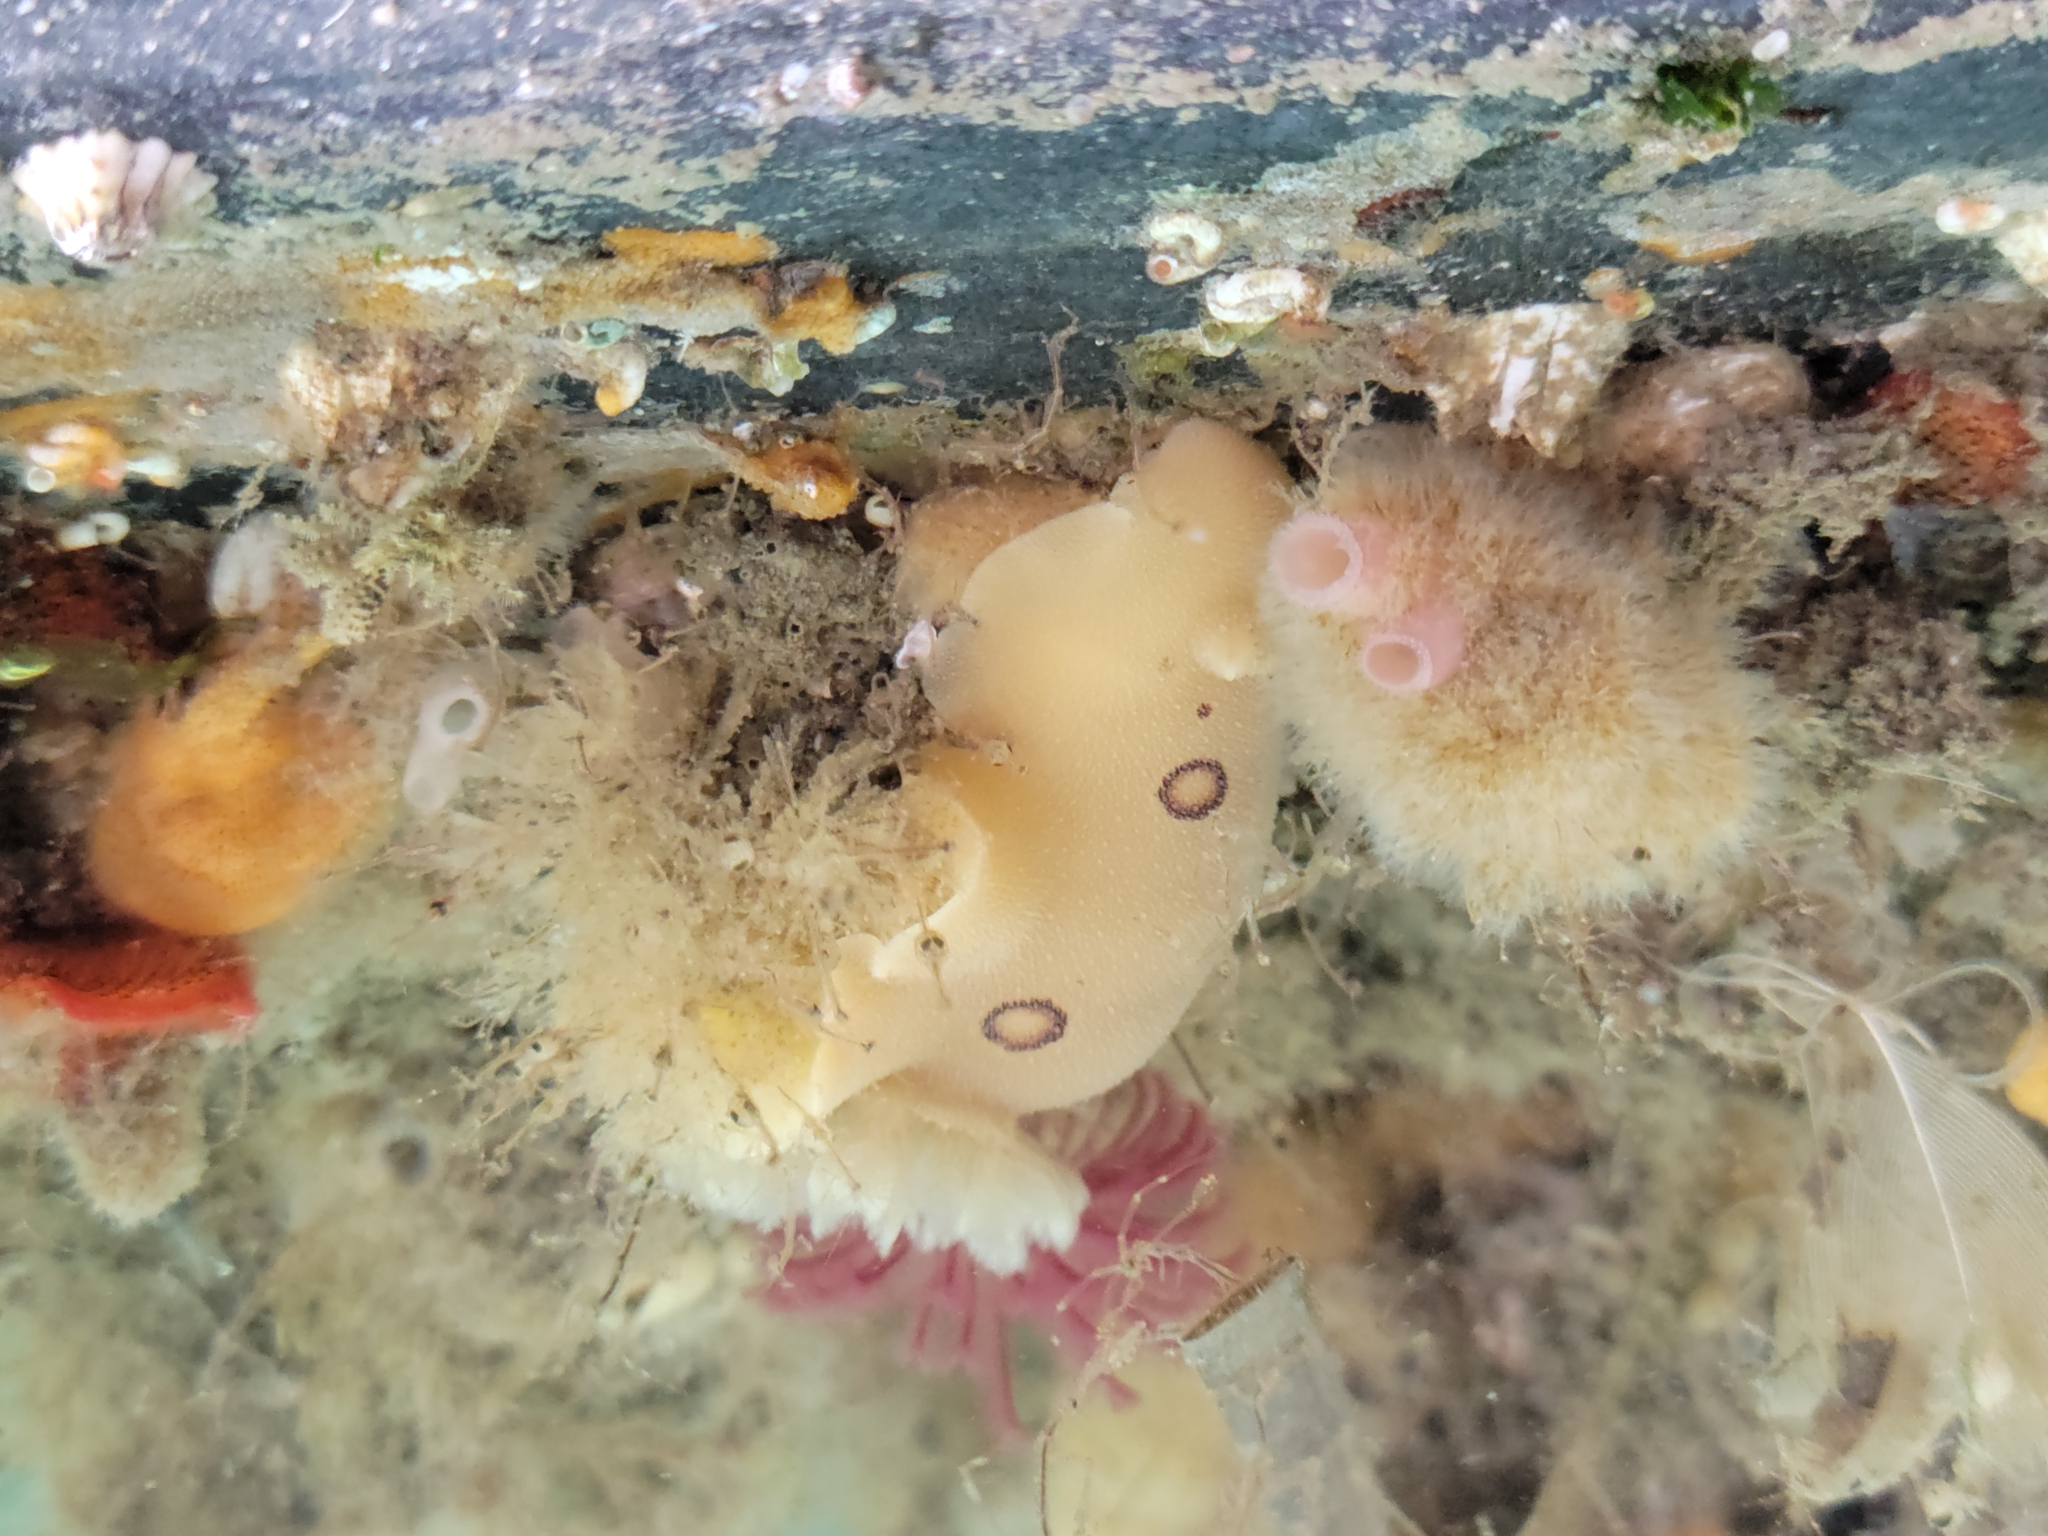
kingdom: Animalia
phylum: Mollusca
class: Gastropoda
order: Nudibranchia
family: Discodorididae
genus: Diaulula
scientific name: Diaulula sandiegensis
